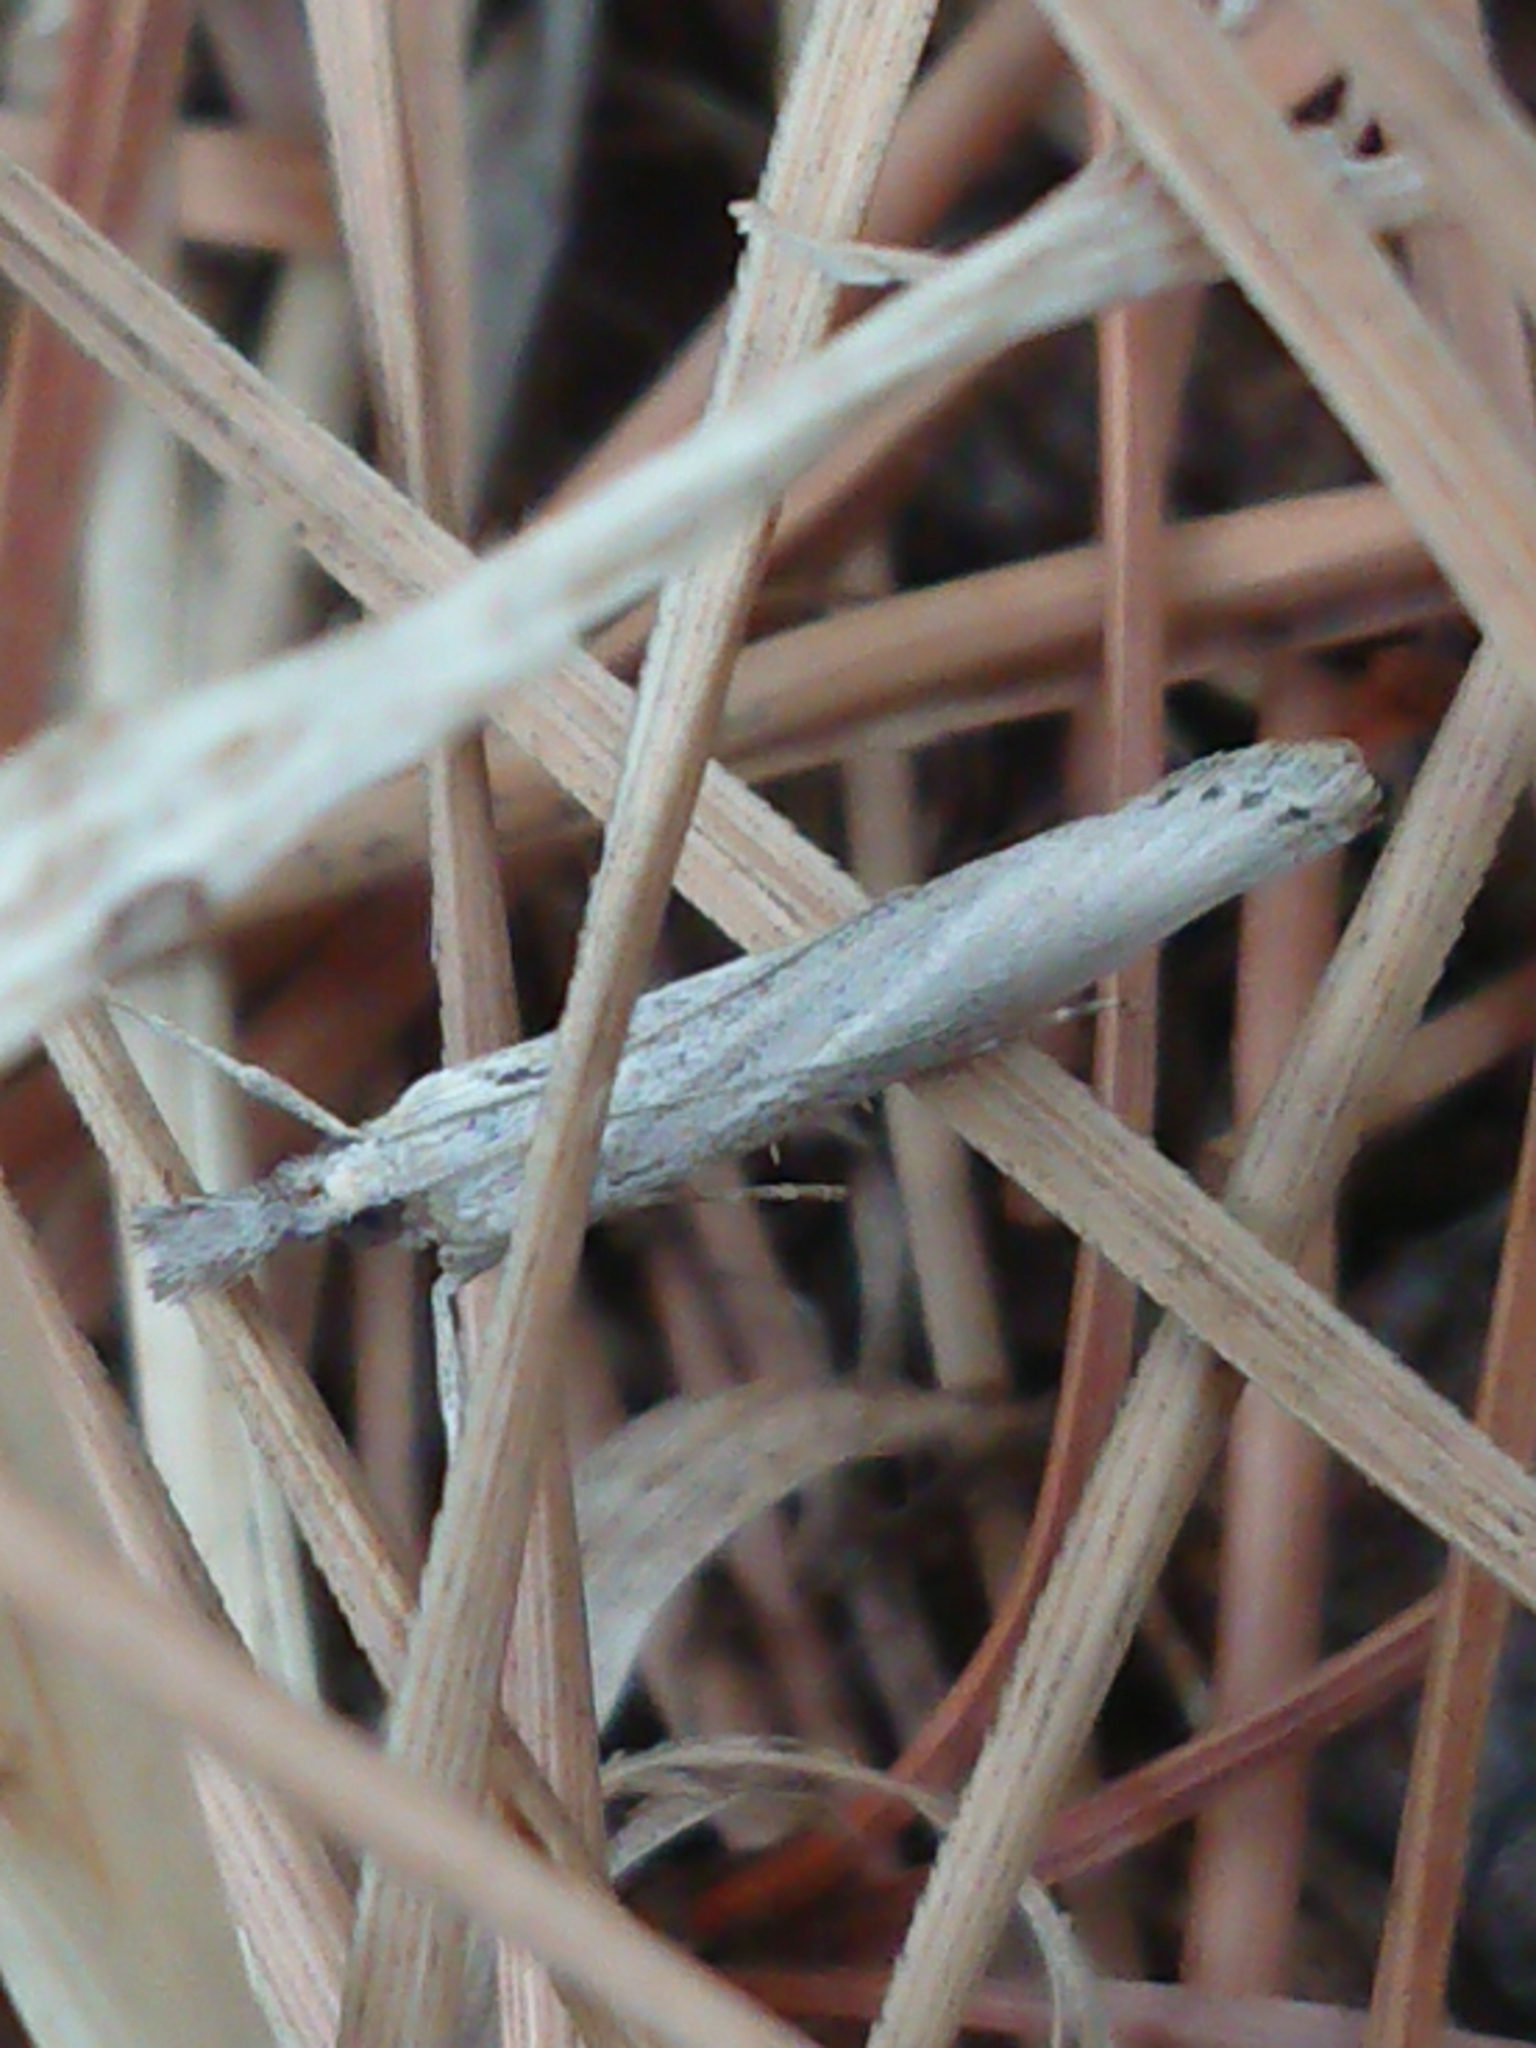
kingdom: Animalia
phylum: Arthropoda
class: Insecta
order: Lepidoptera
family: Crambidae
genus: Orocrambus
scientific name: Orocrambus cyclopicus
